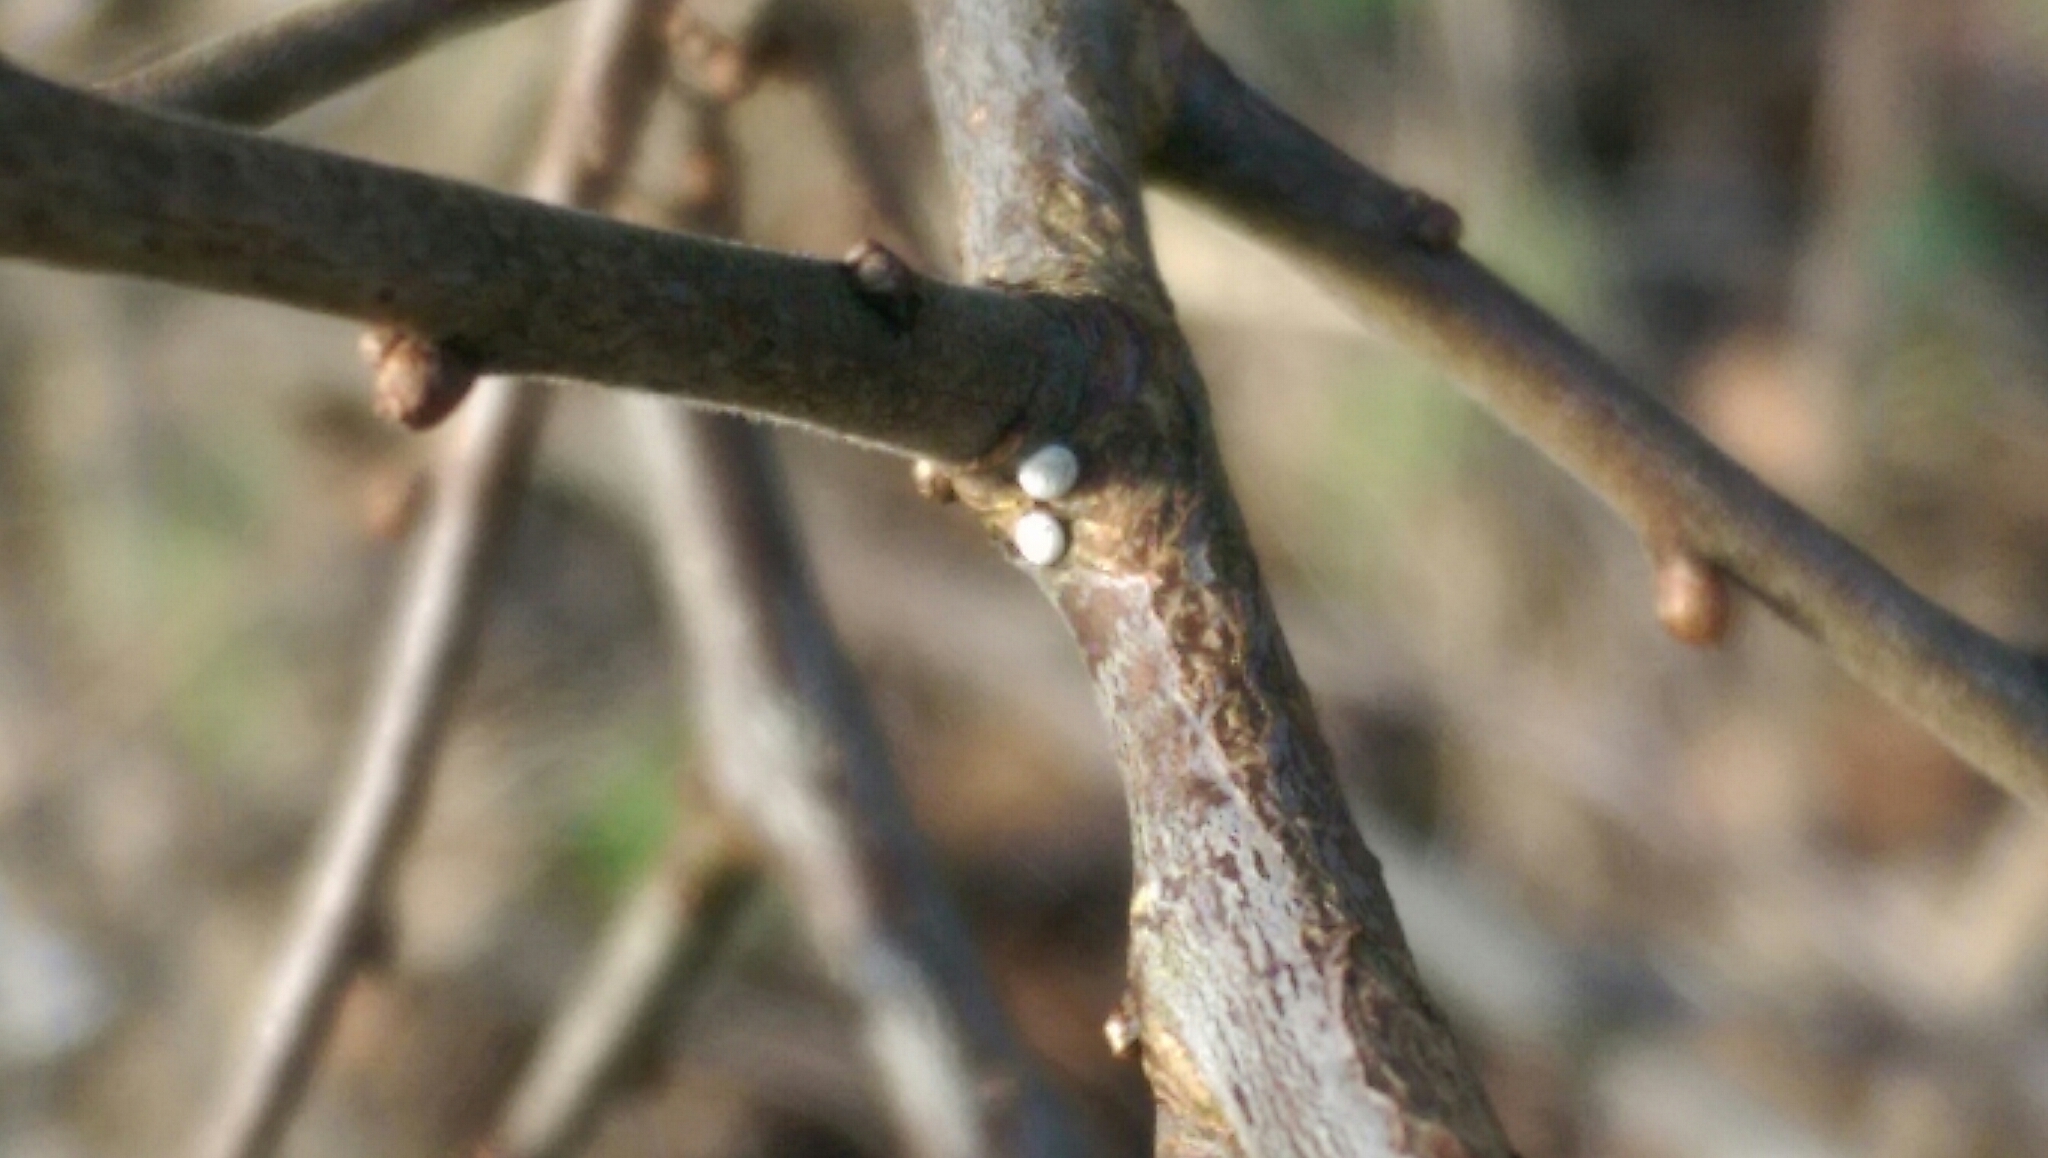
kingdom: Animalia
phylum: Arthropoda
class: Insecta
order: Lepidoptera
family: Lycaenidae
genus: Thecla
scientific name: Thecla betulae
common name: Brown hairstreak
